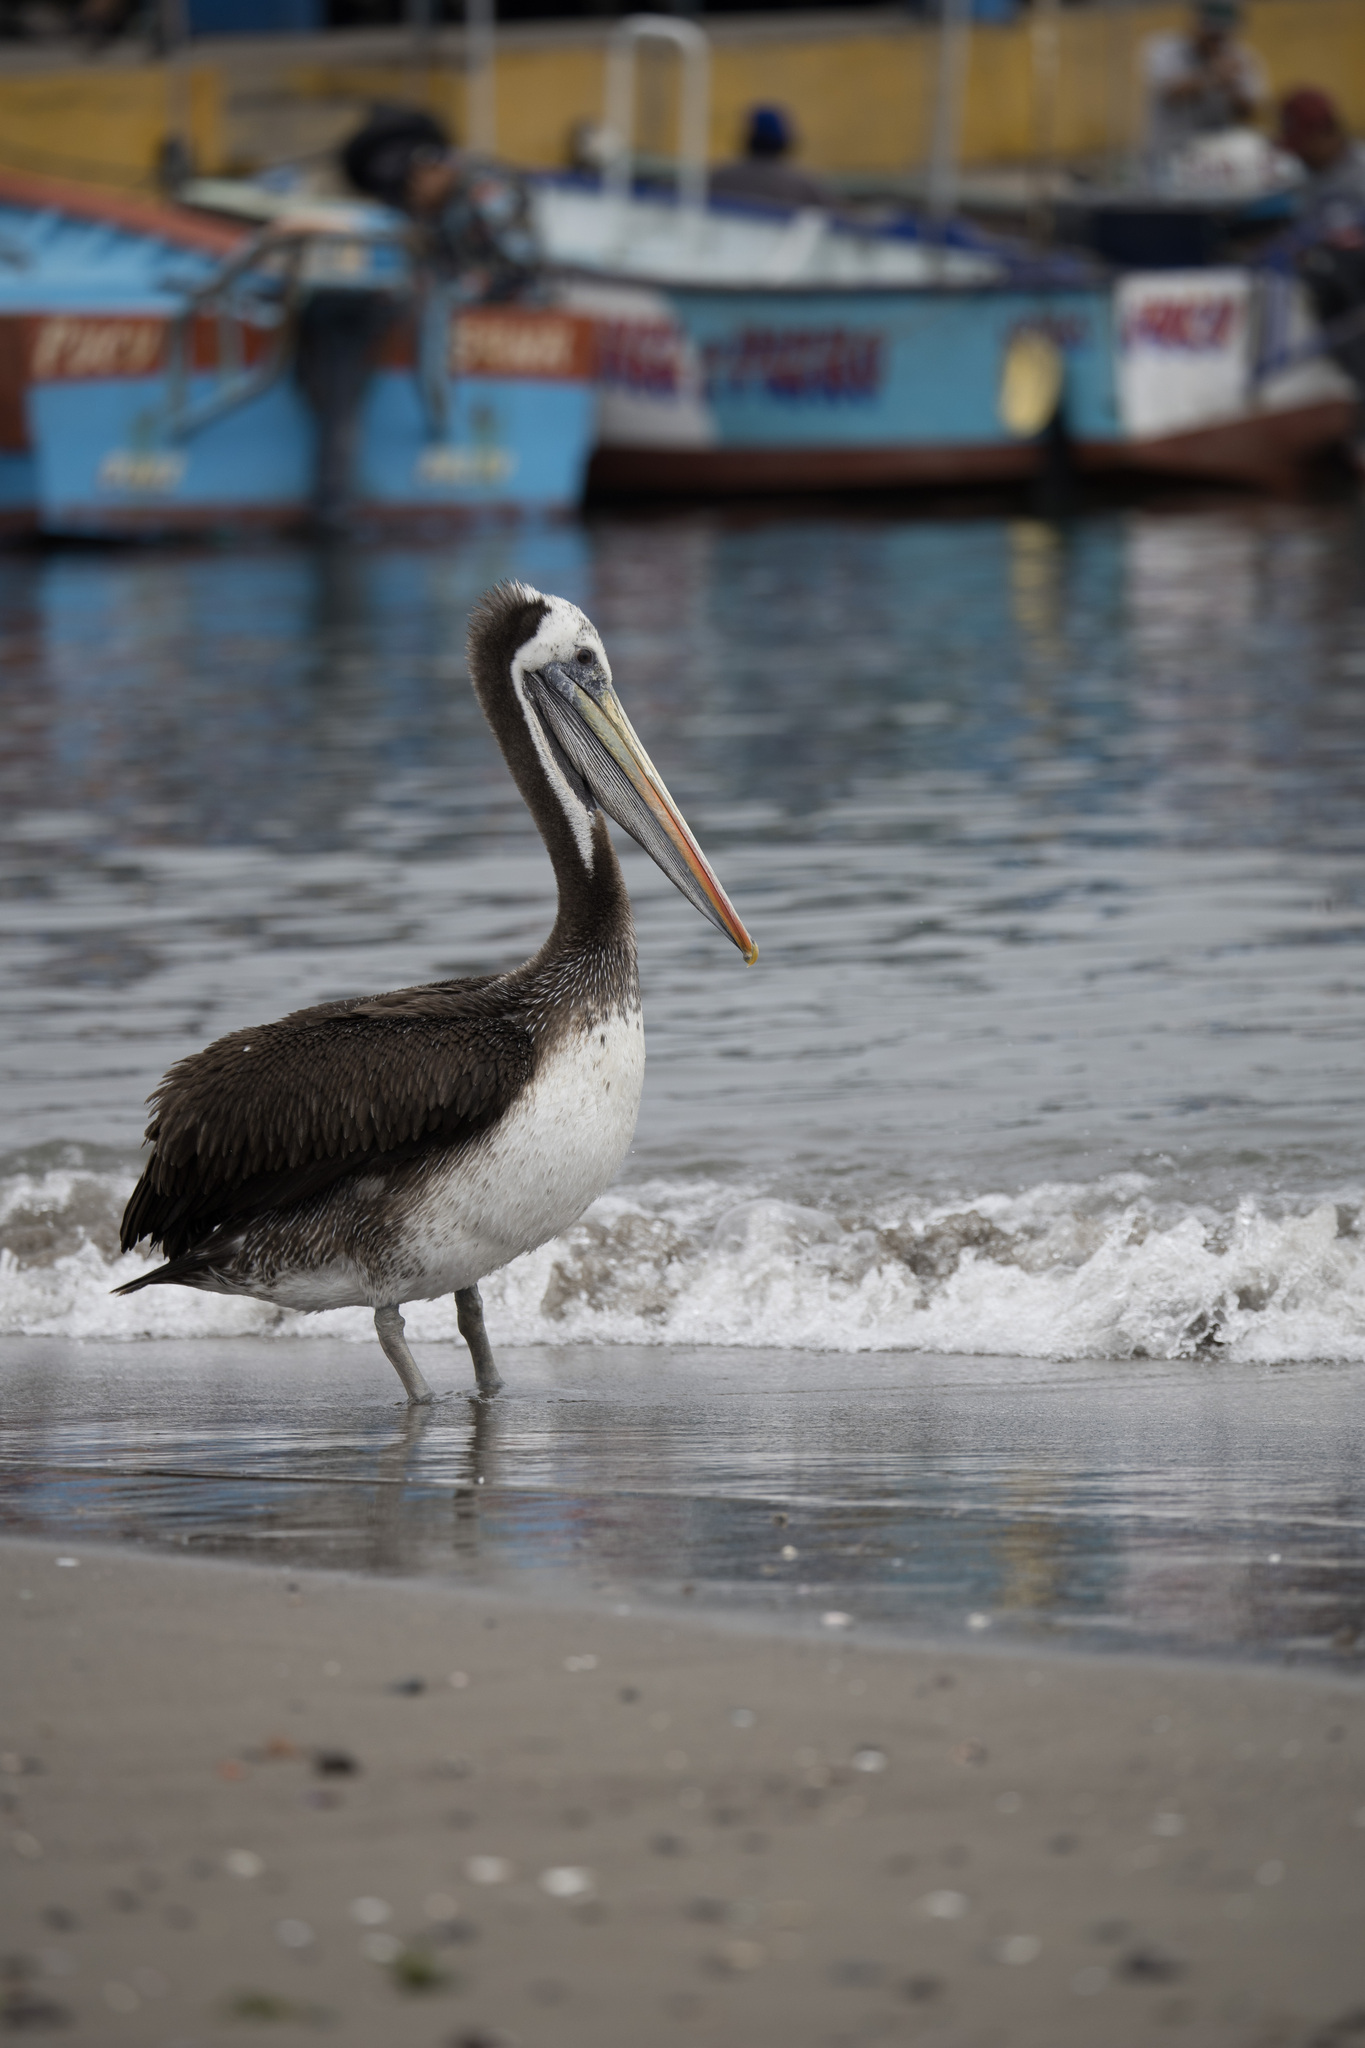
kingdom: Animalia
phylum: Chordata
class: Aves
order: Pelecaniformes
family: Pelecanidae
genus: Pelecanus
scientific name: Pelecanus thagus
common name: Peruvian pelican
